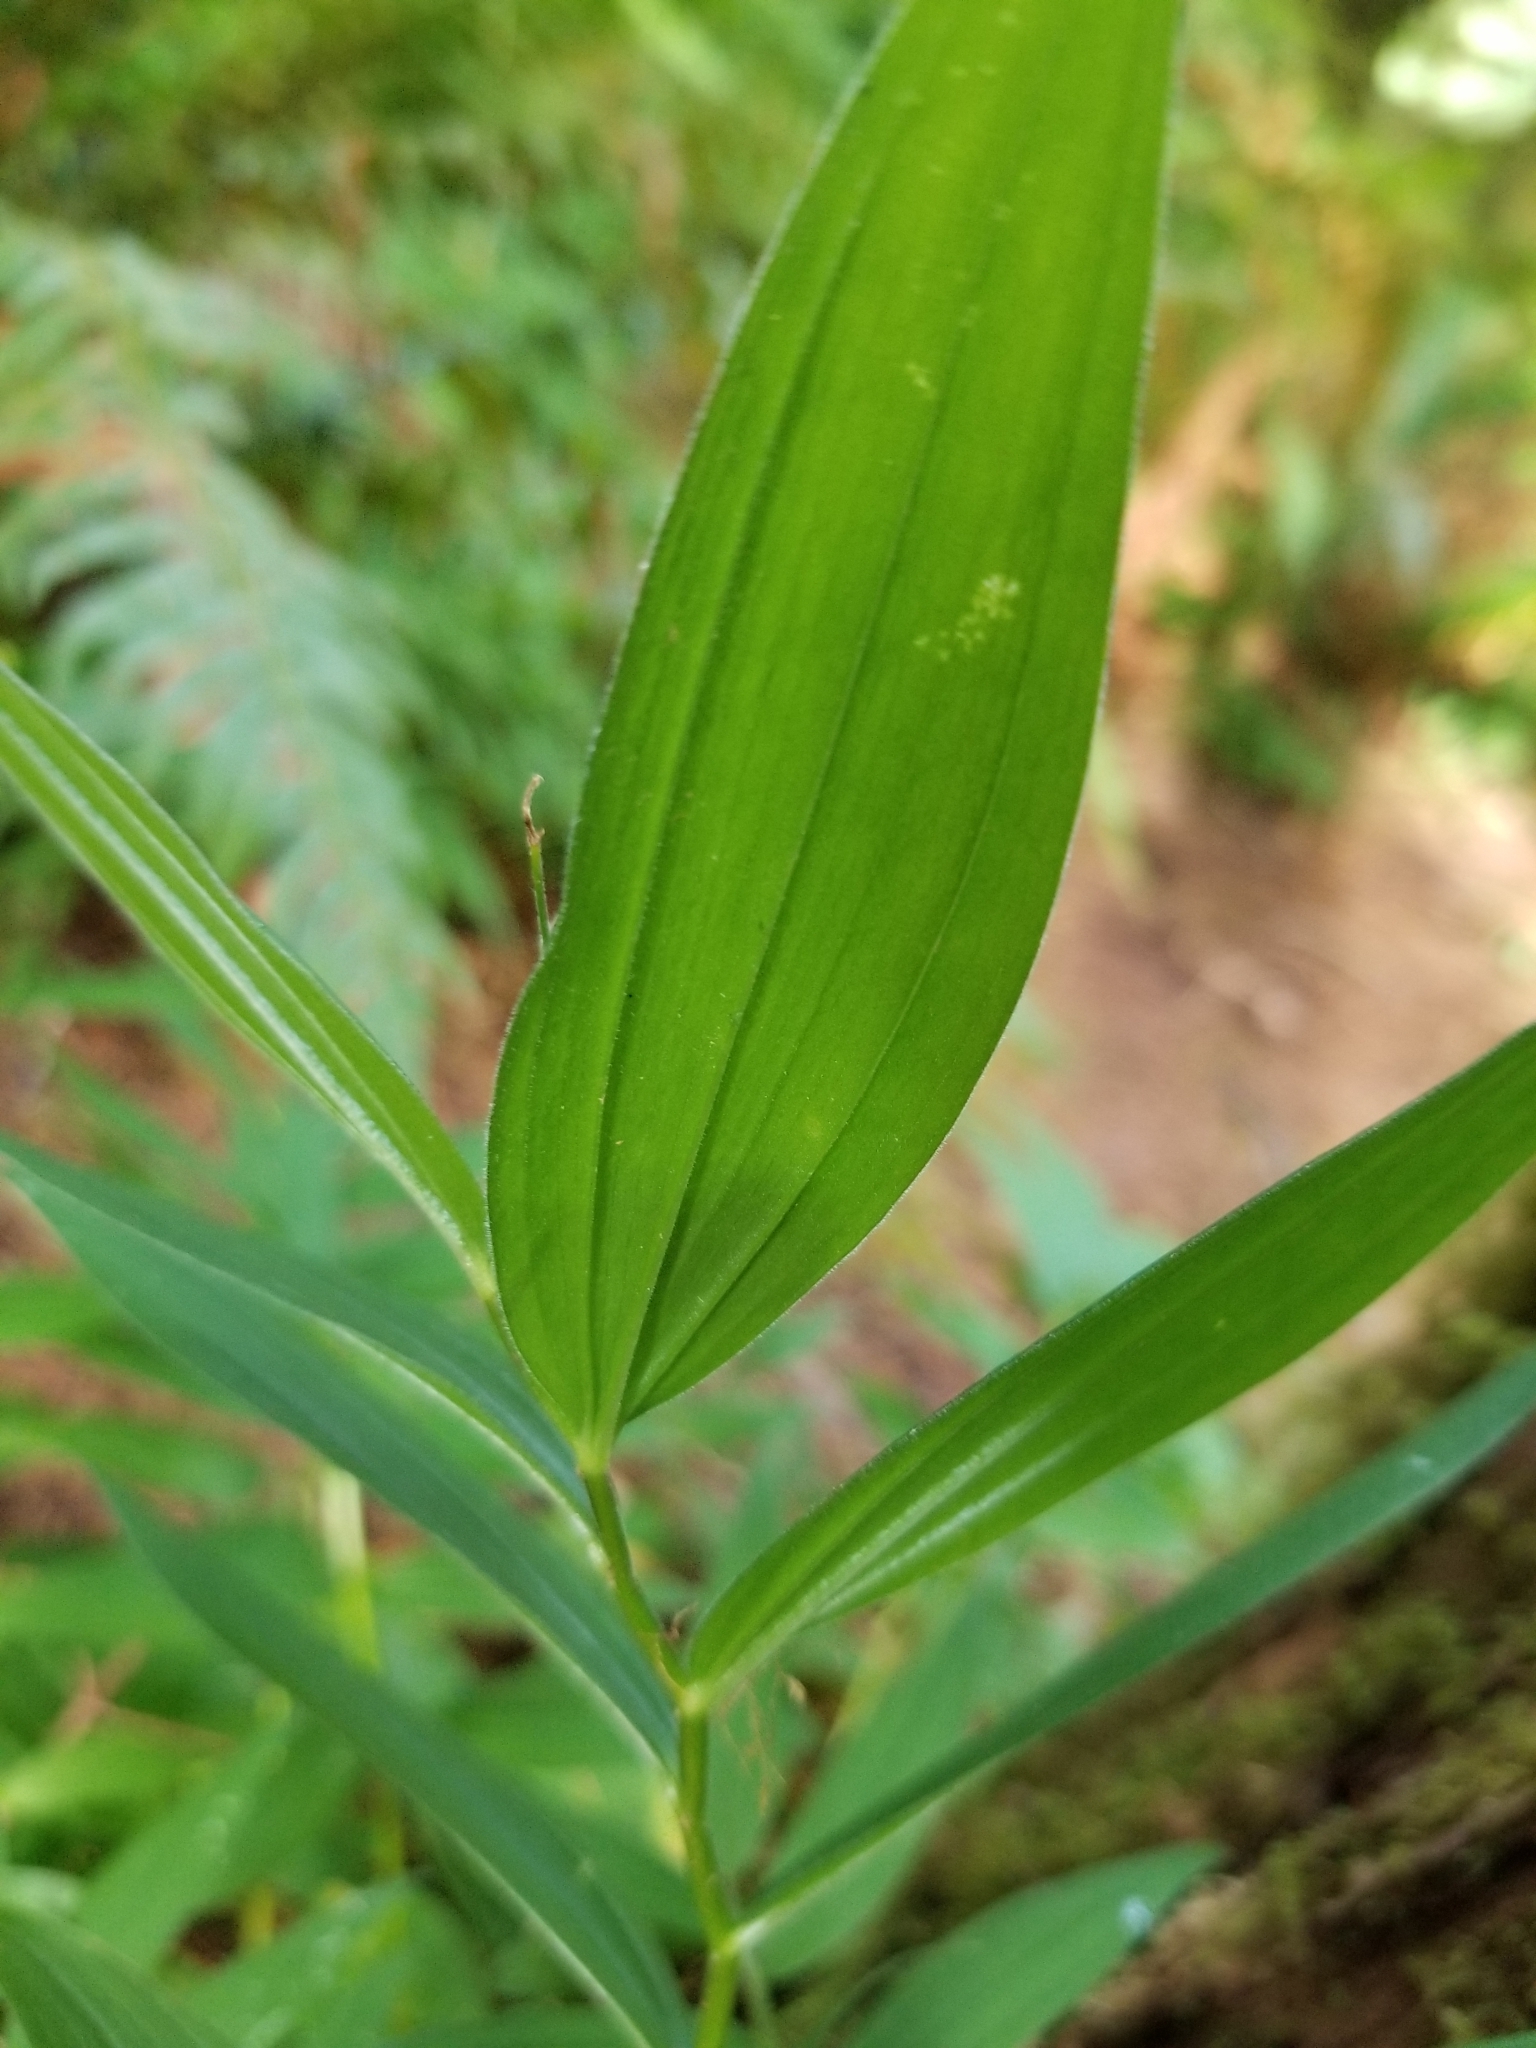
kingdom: Plantae
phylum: Tracheophyta
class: Liliopsida
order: Asparagales
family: Asparagaceae
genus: Maianthemum
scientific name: Maianthemum stellatum
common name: Little false solomon's seal
